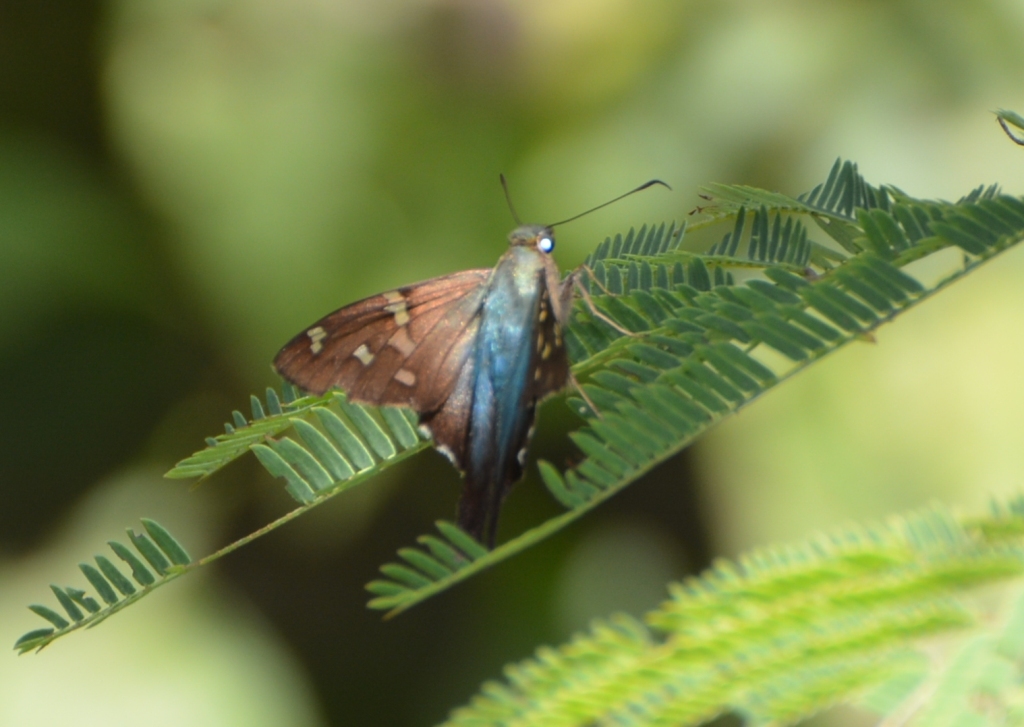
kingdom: Animalia
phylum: Arthropoda
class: Insecta
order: Lepidoptera
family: Hesperiidae
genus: Urbanus
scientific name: Urbanus proteus
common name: Long-tailed skipper
